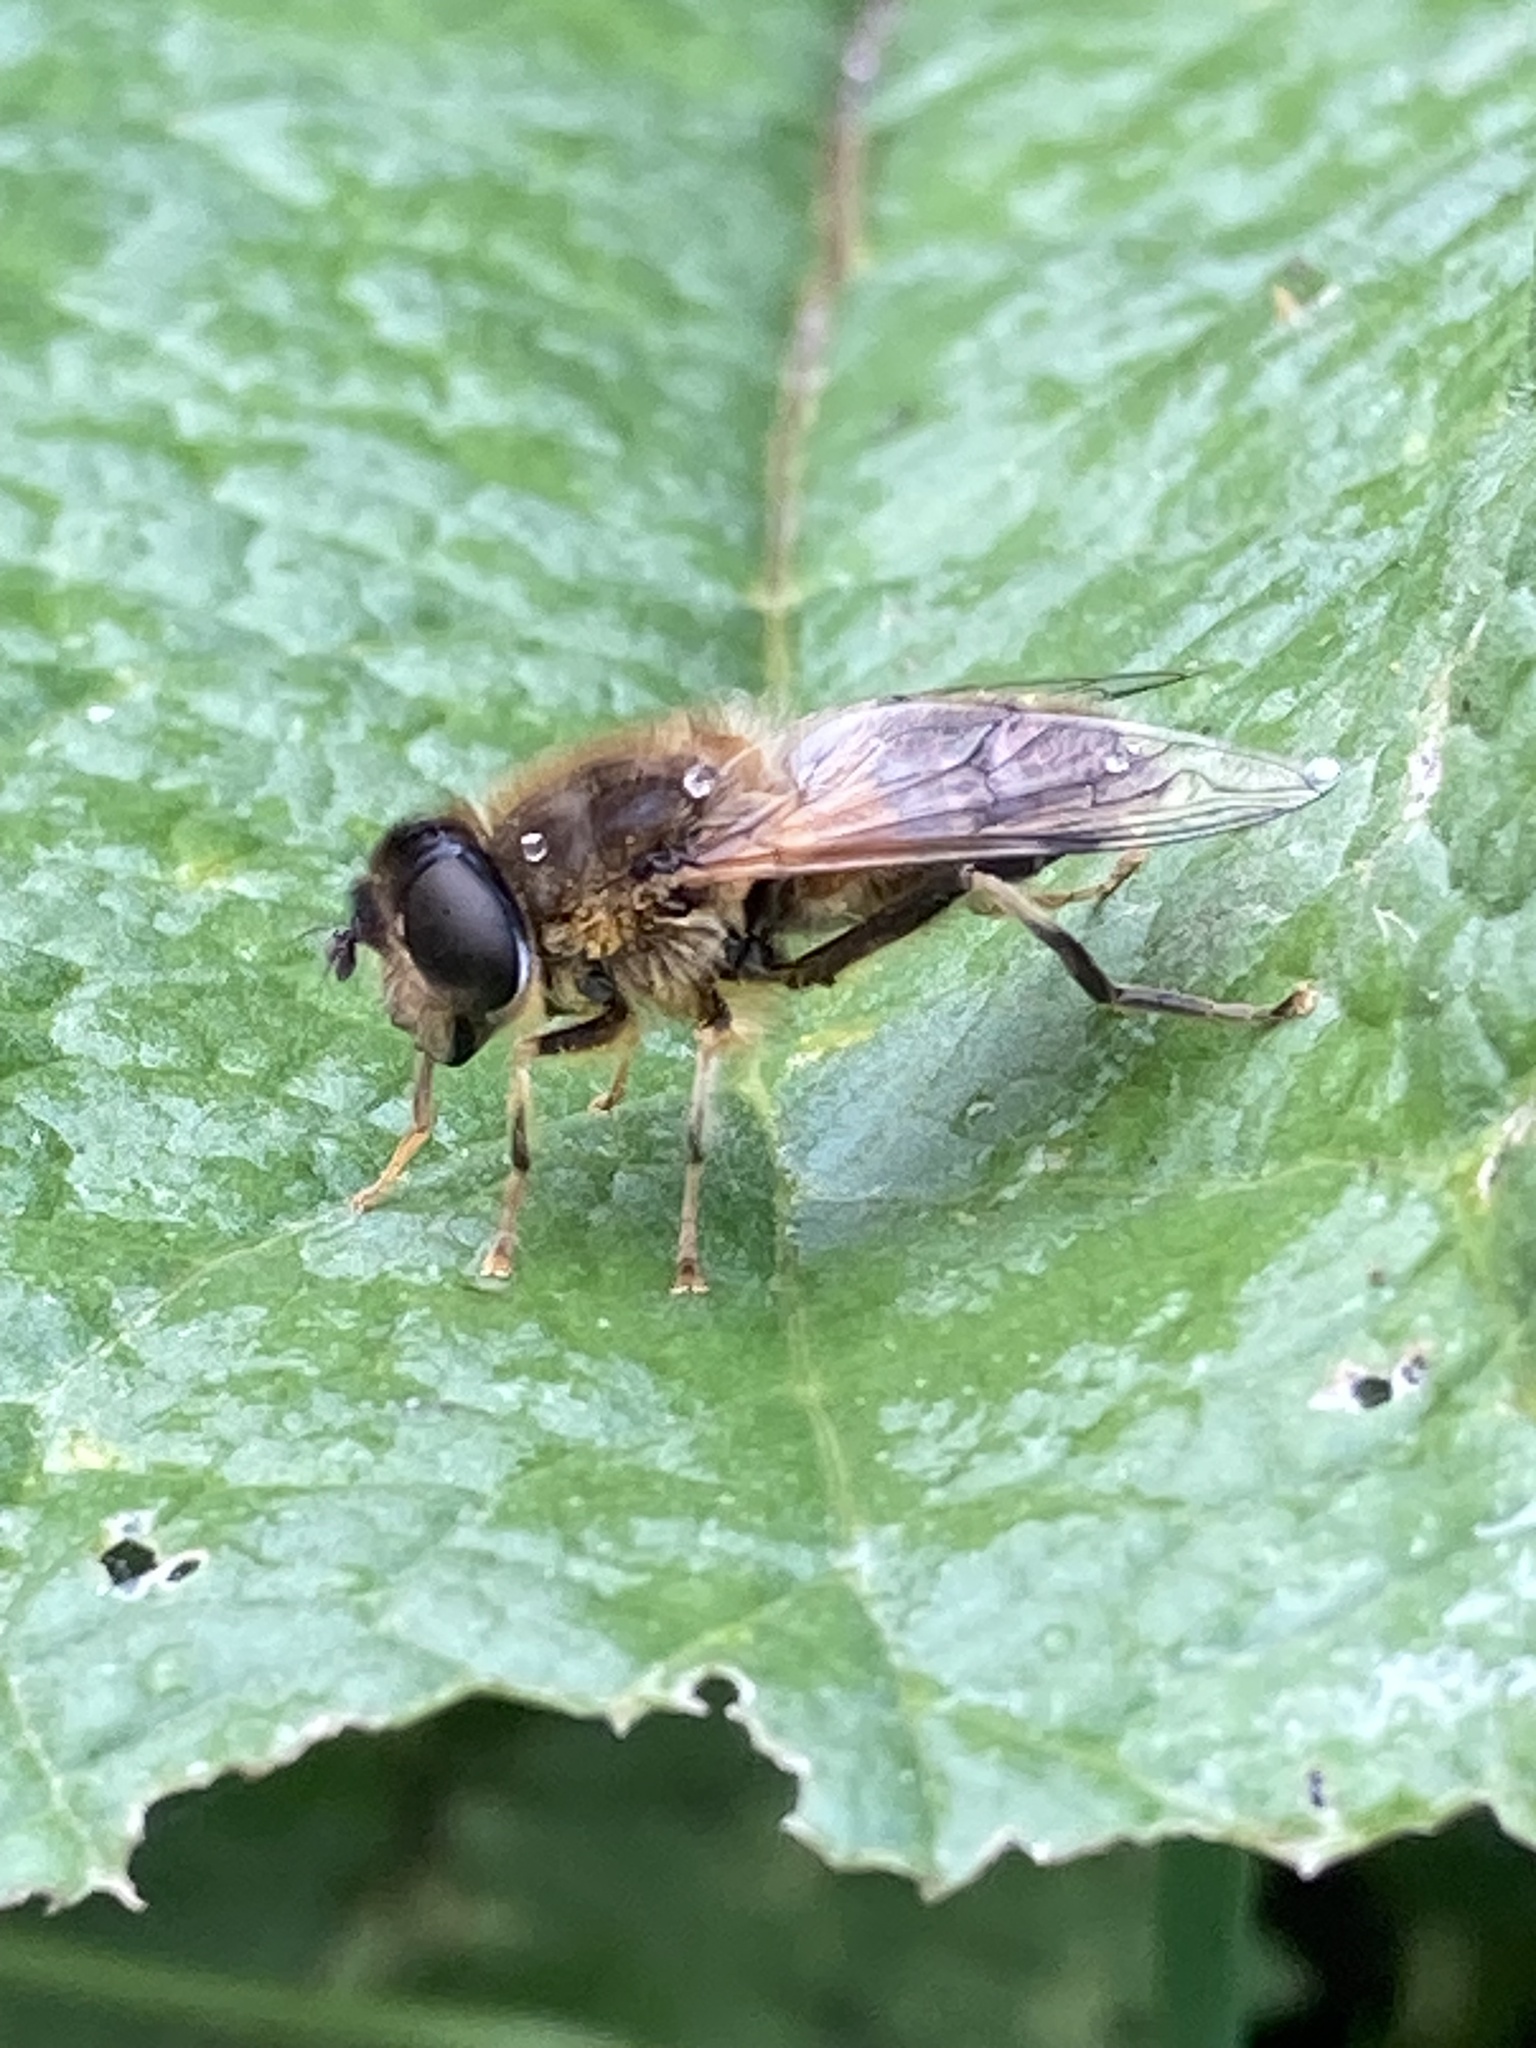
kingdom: Animalia
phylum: Arthropoda
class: Insecta
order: Diptera
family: Syrphidae
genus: Eristalis
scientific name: Eristalis pertinax
